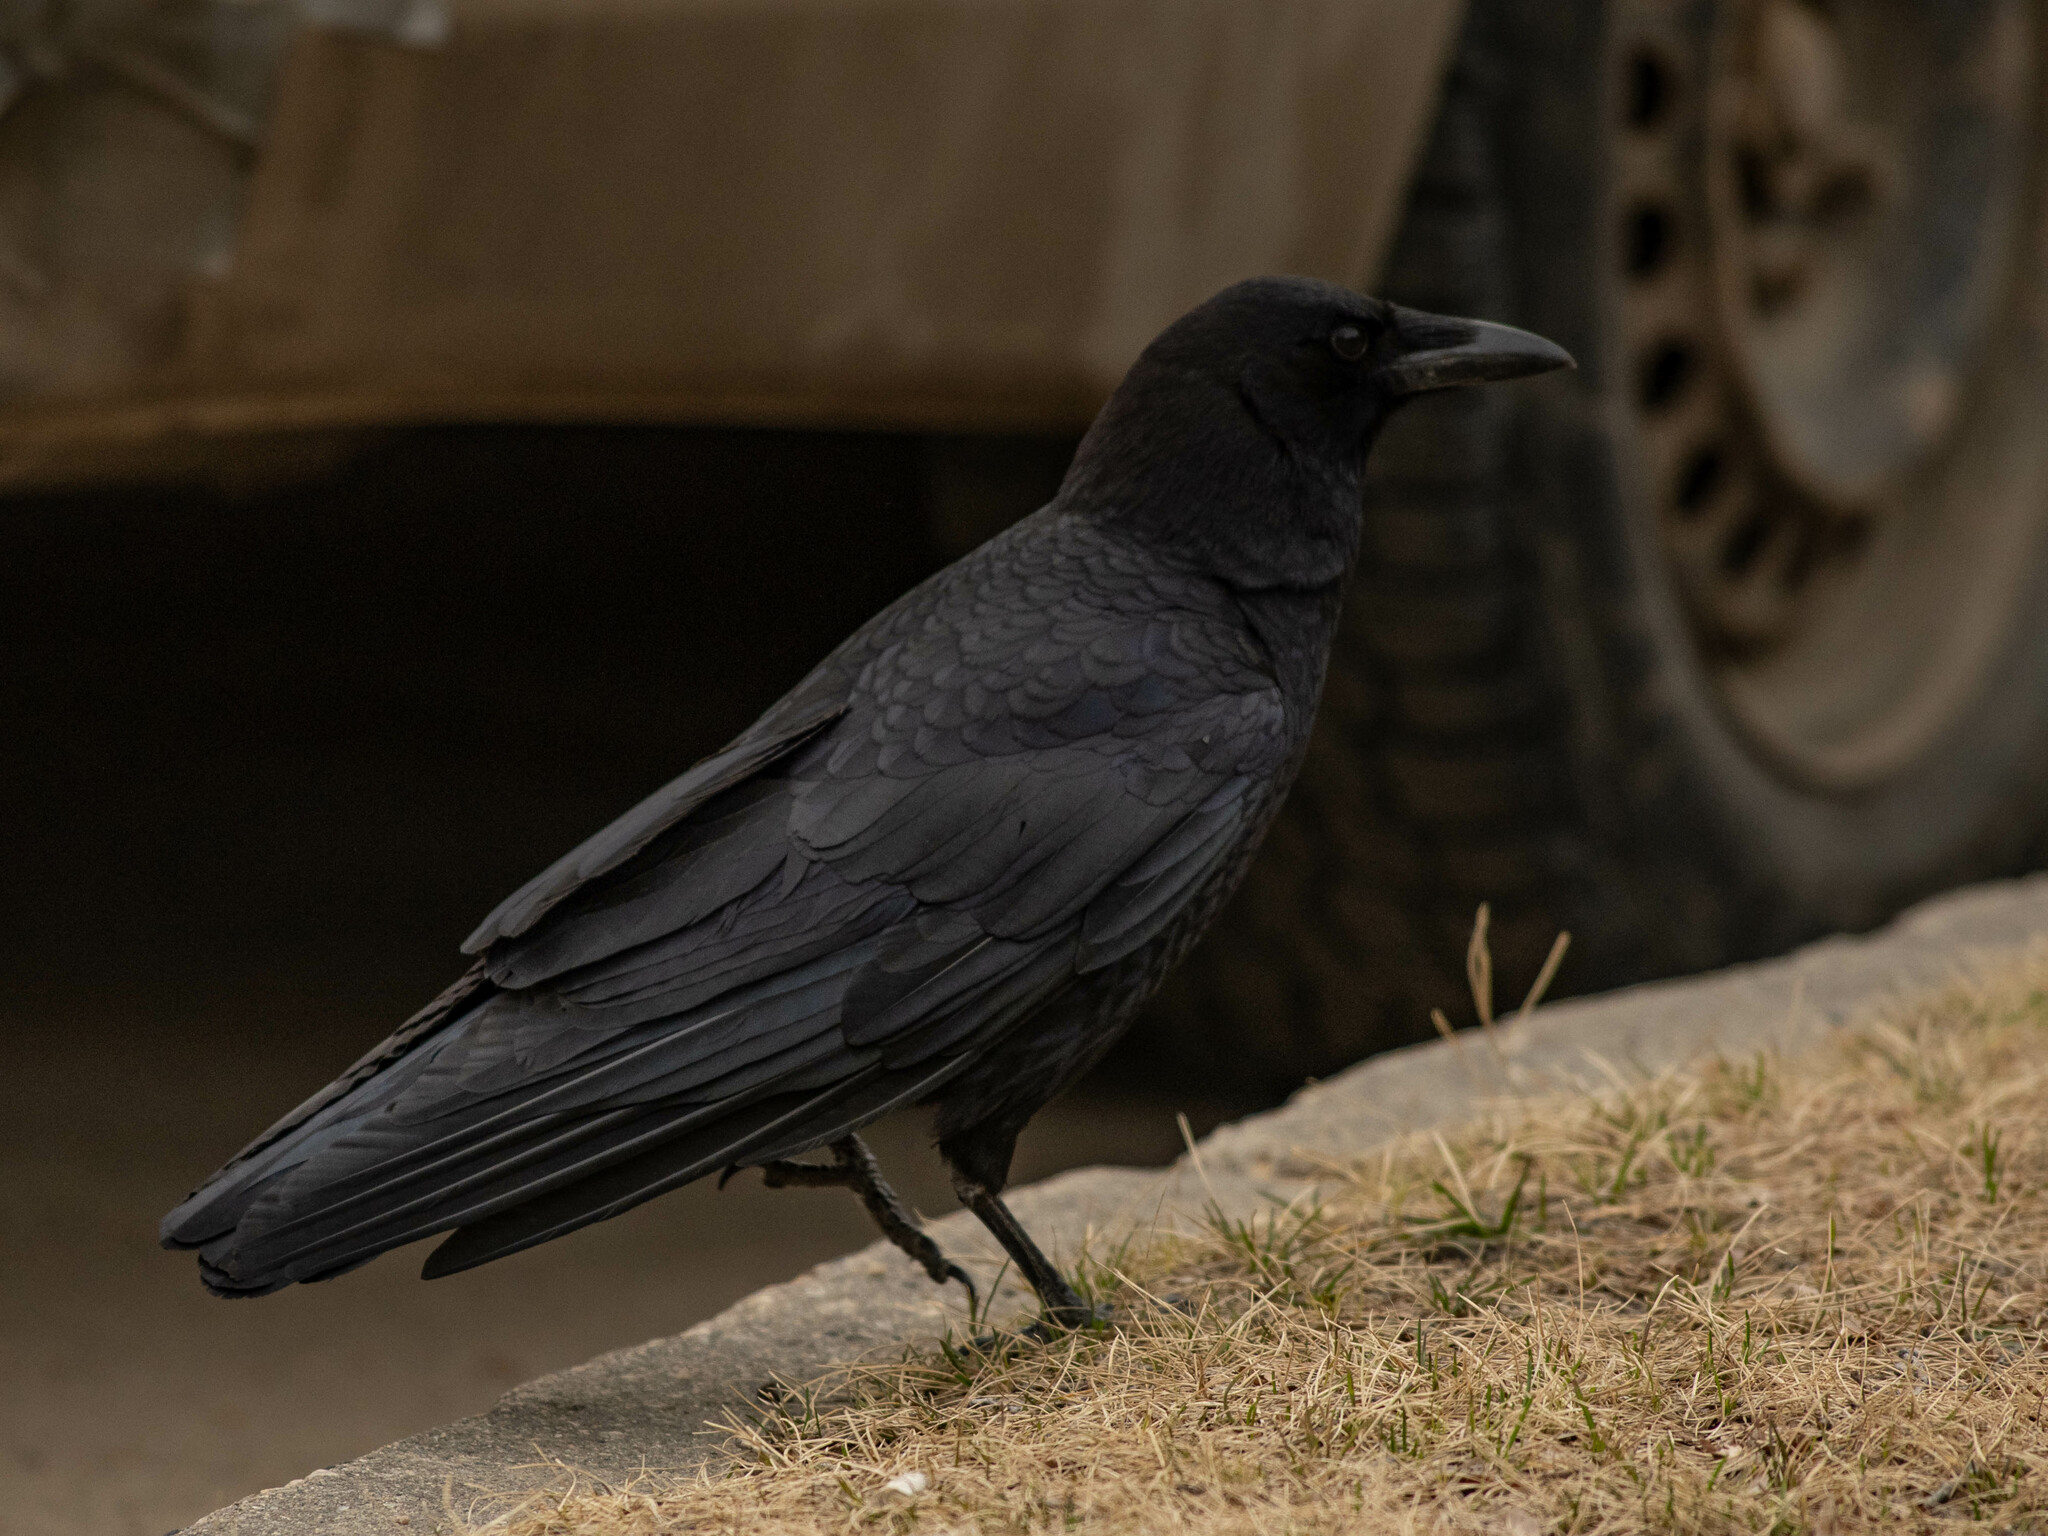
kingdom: Animalia
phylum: Chordata
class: Aves
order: Passeriformes
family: Corvidae
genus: Corvus
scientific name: Corvus brachyrhynchos
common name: American crow
